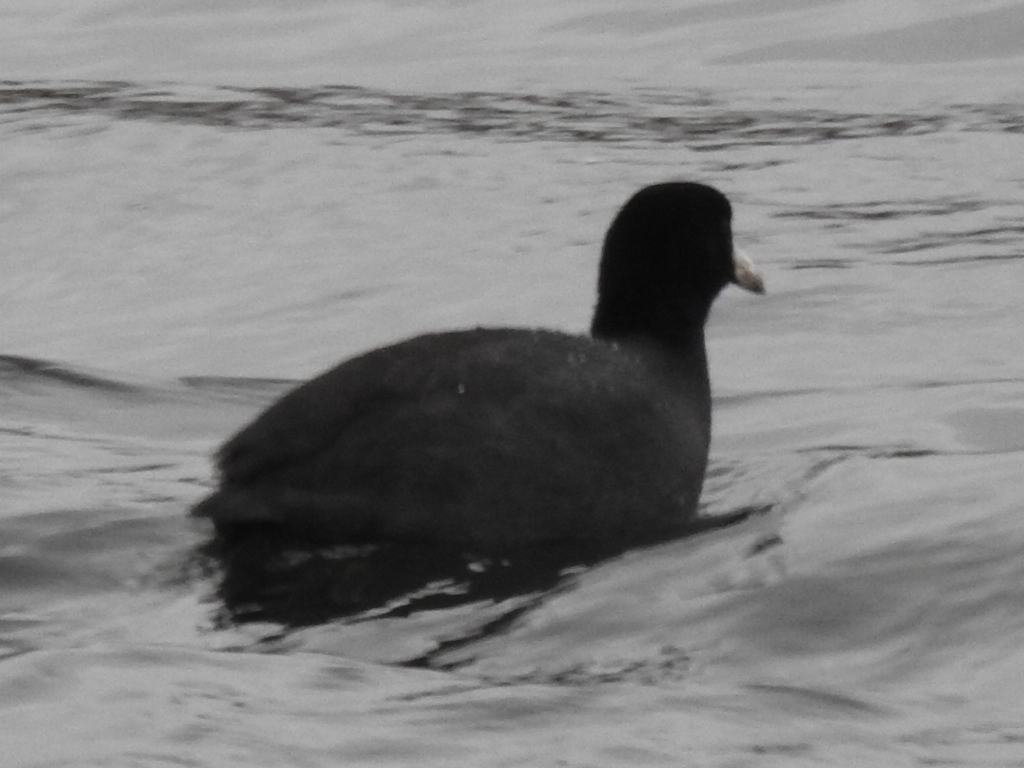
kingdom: Animalia
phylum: Chordata
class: Aves
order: Gruiformes
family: Rallidae
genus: Fulica
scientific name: Fulica americana
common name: American coot
